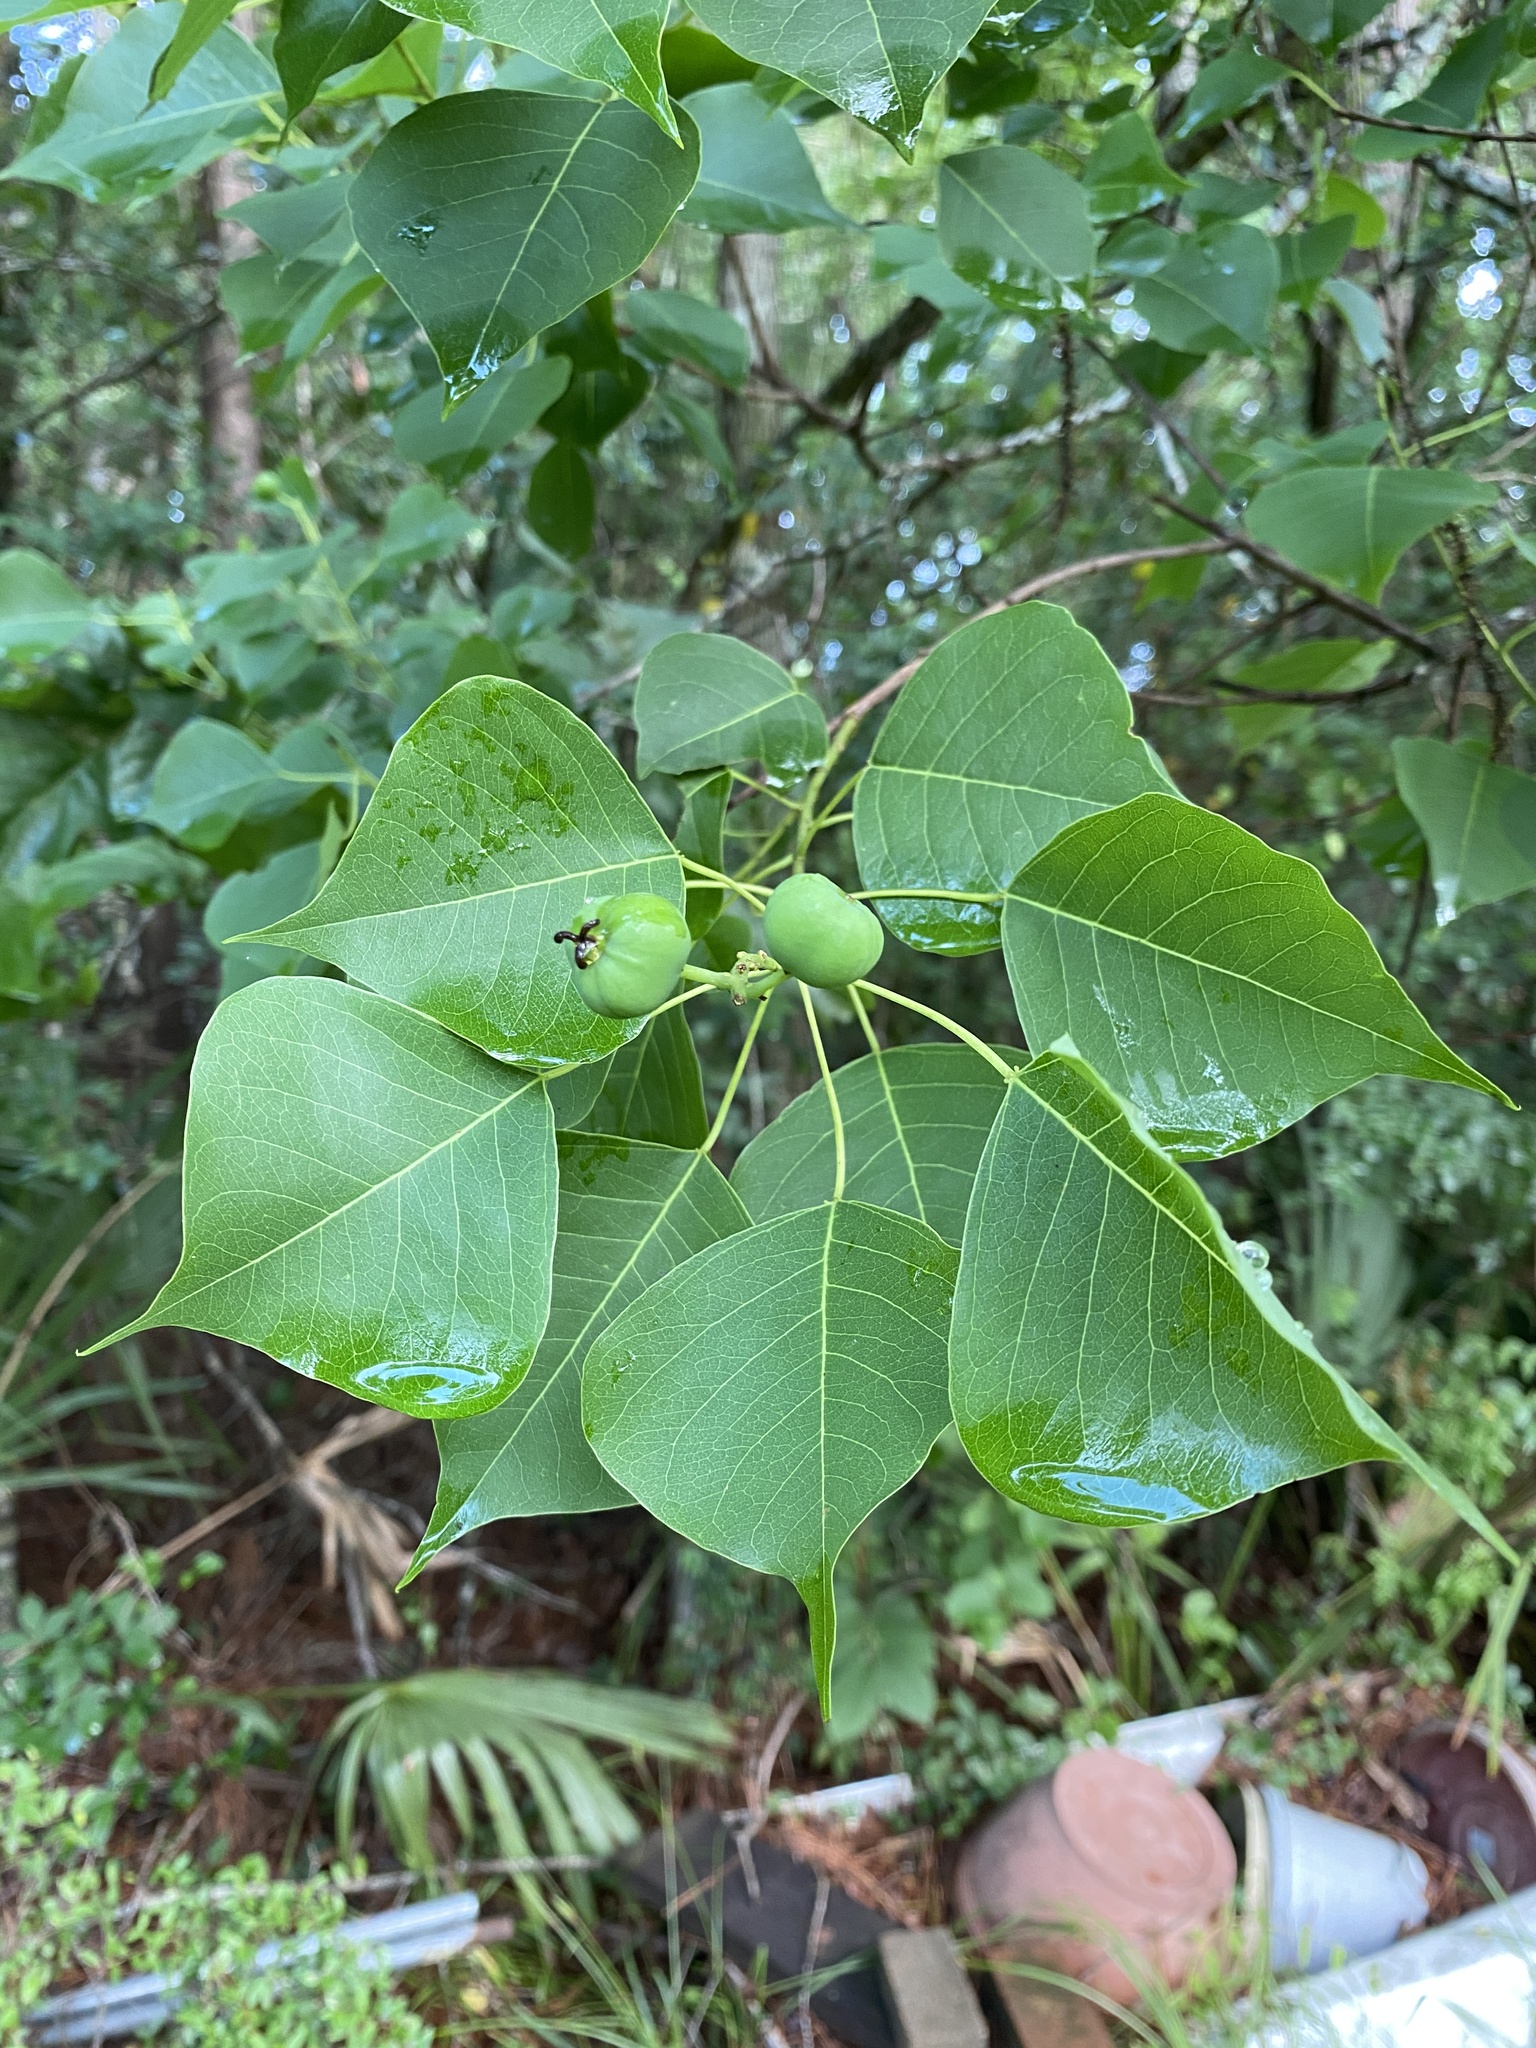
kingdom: Plantae
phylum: Tracheophyta
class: Magnoliopsida
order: Malpighiales
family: Euphorbiaceae
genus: Triadica
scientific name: Triadica sebifera
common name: Chinese tallow
